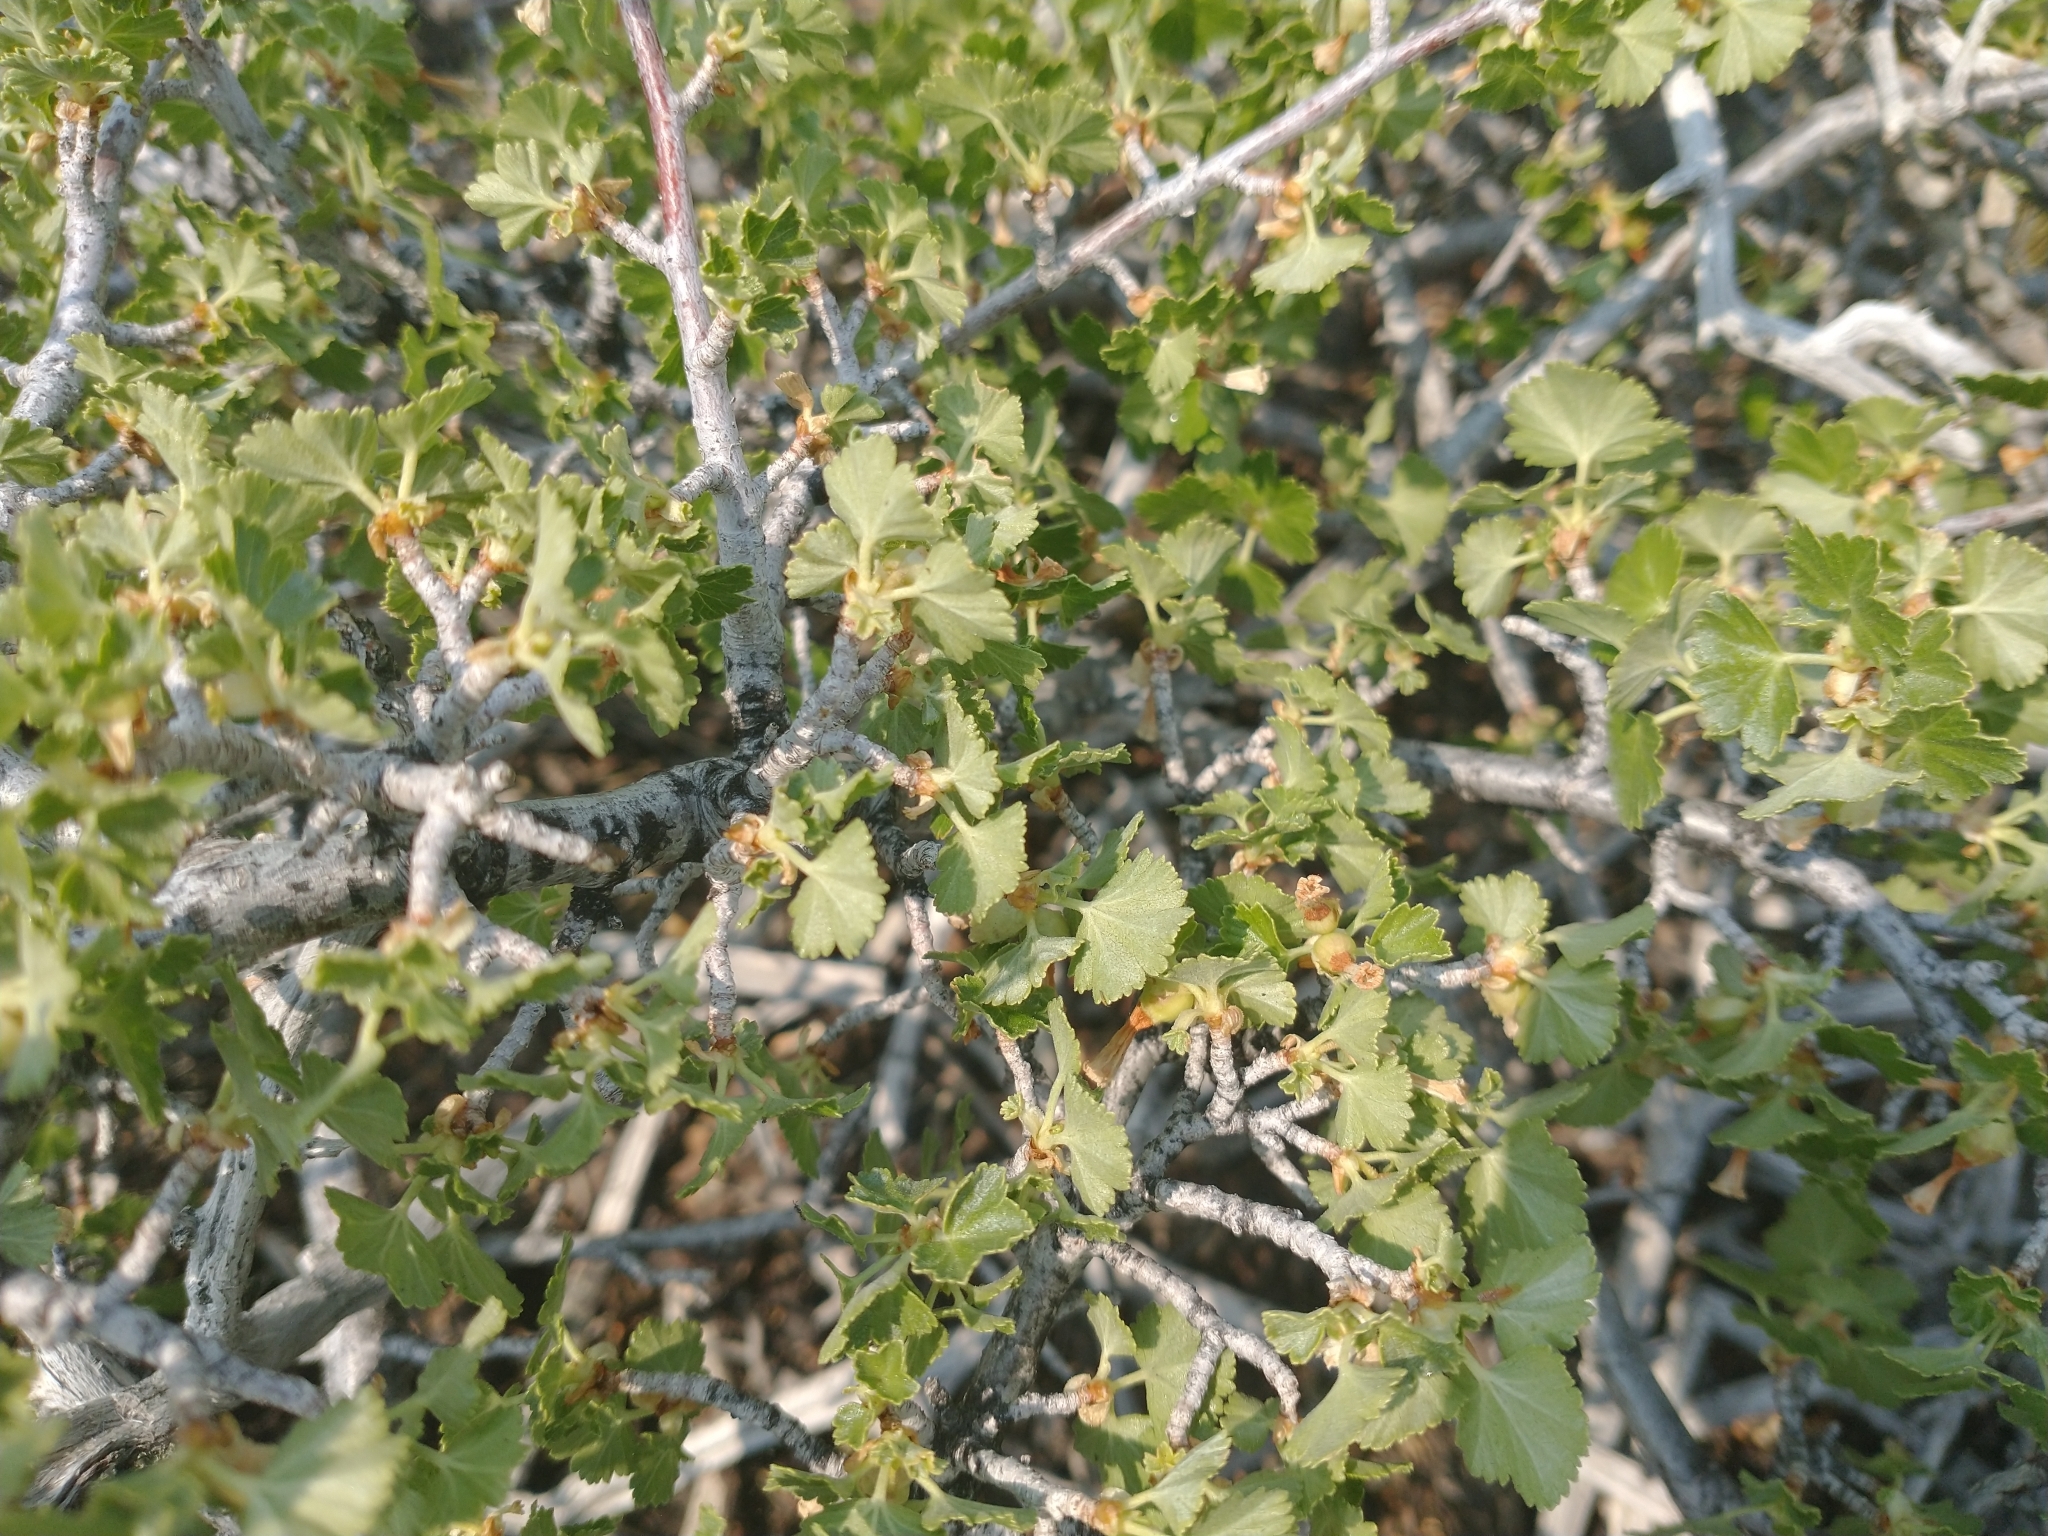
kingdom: Plantae
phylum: Tracheophyta
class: Magnoliopsida
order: Saxifragales
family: Grossulariaceae
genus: Ribes
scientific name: Ribes cereum
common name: Wax currant
